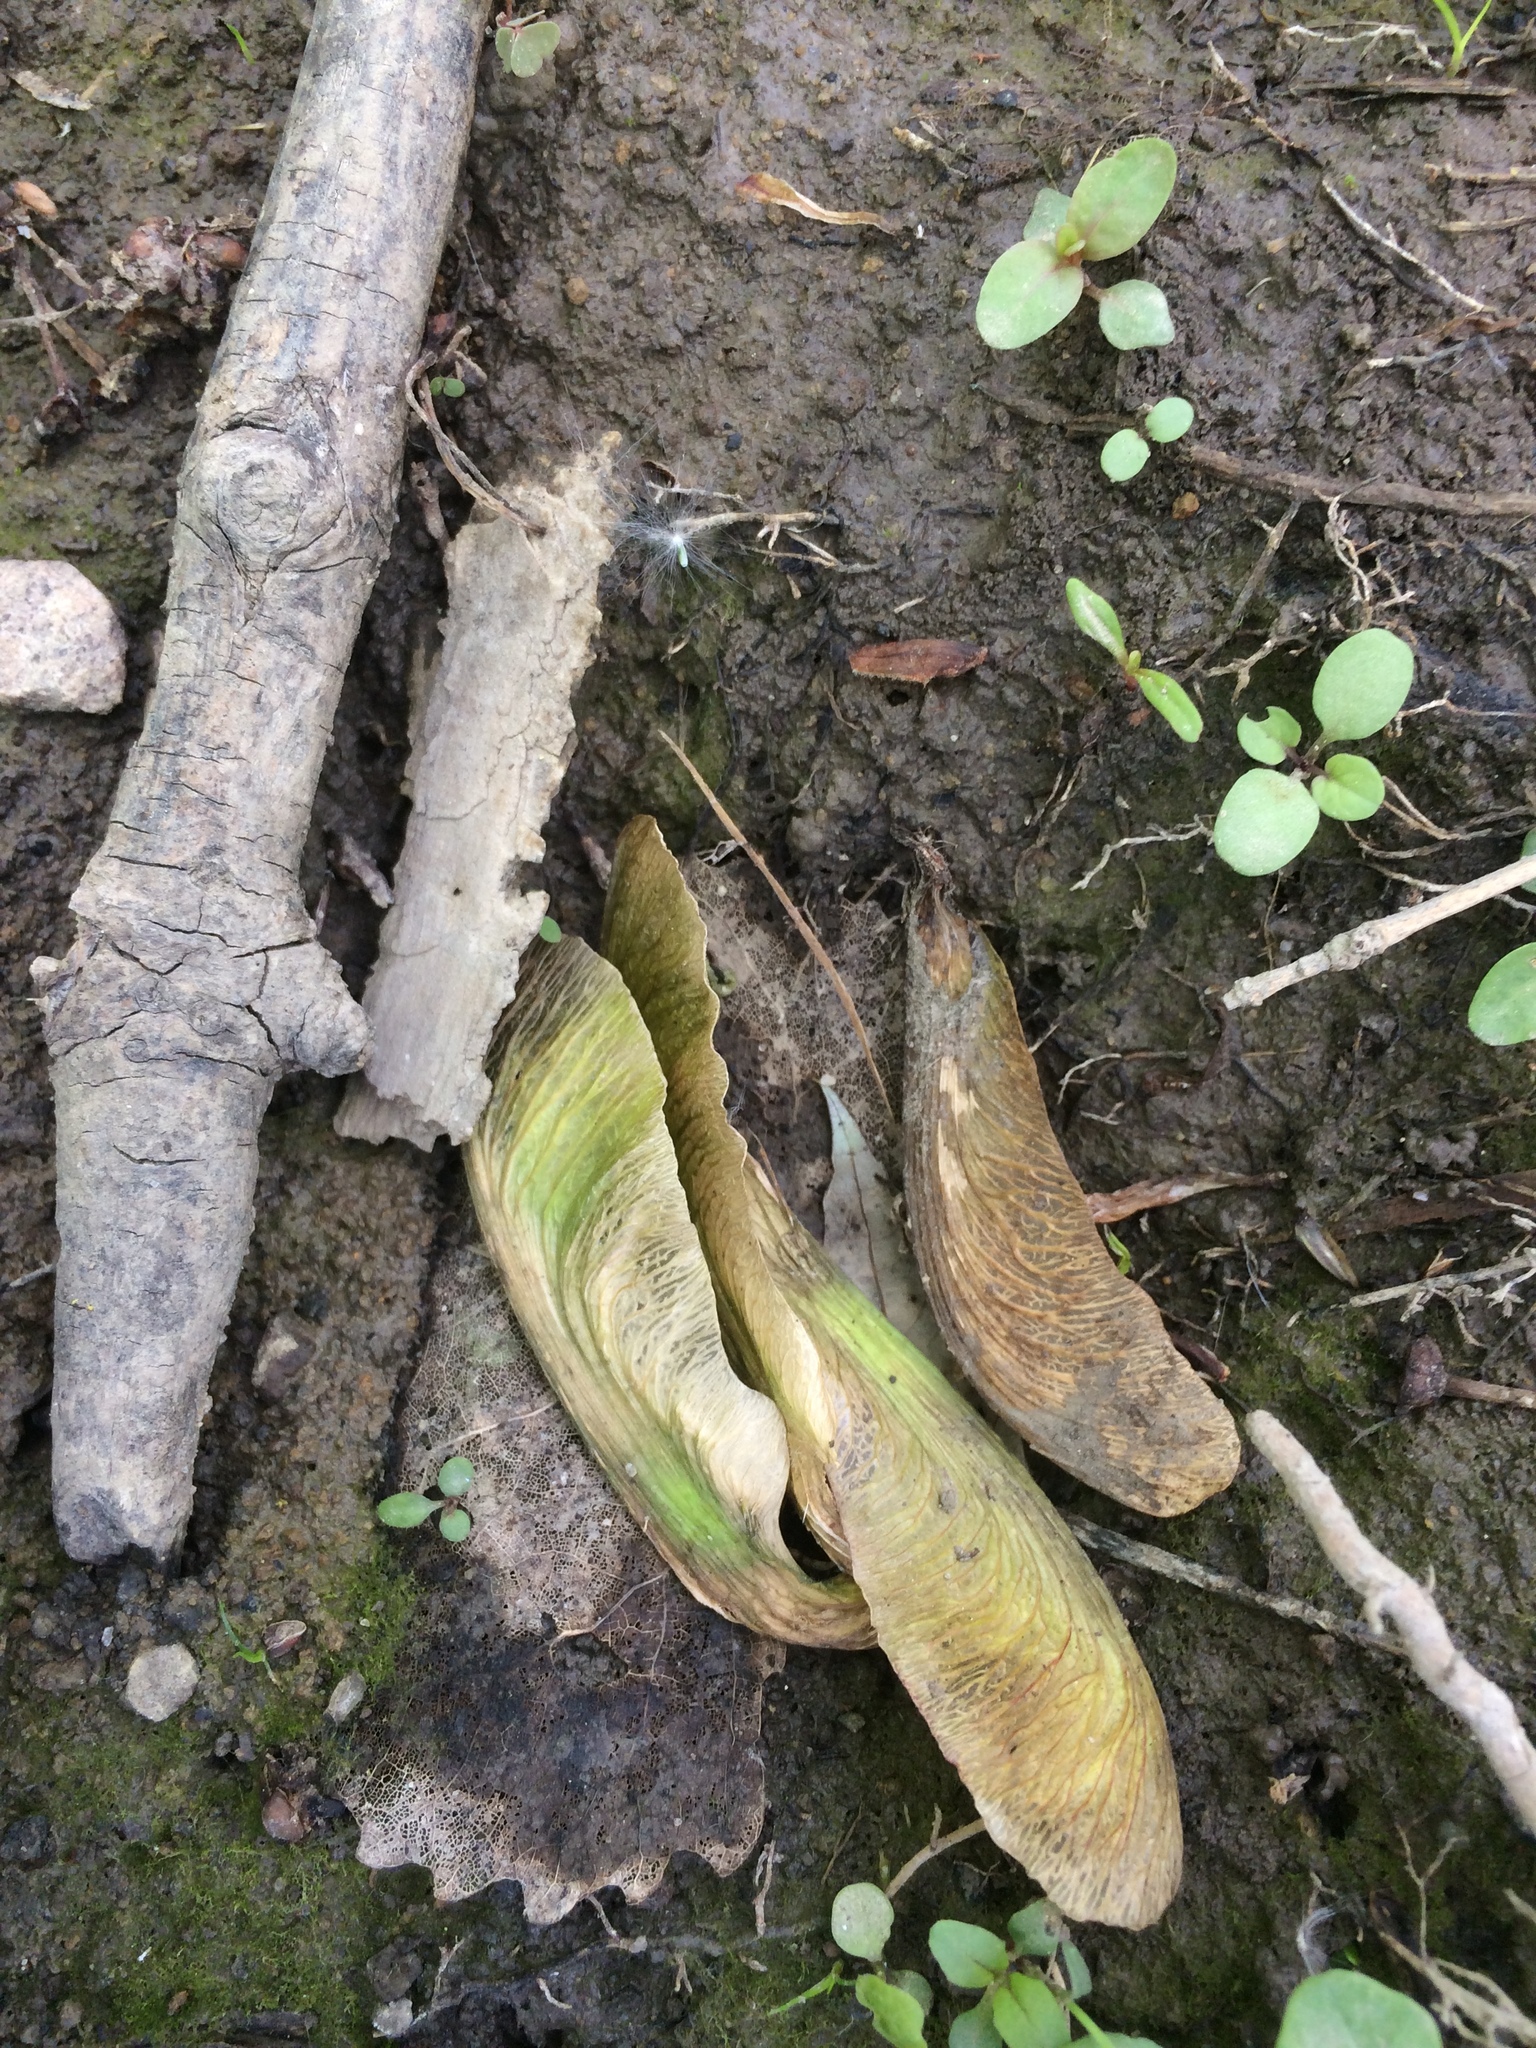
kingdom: Plantae
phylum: Tracheophyta
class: Magnoliopsida
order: Sapindales
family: Sapindaceae
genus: Acer
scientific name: Acer saccharinum
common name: Silver maple
